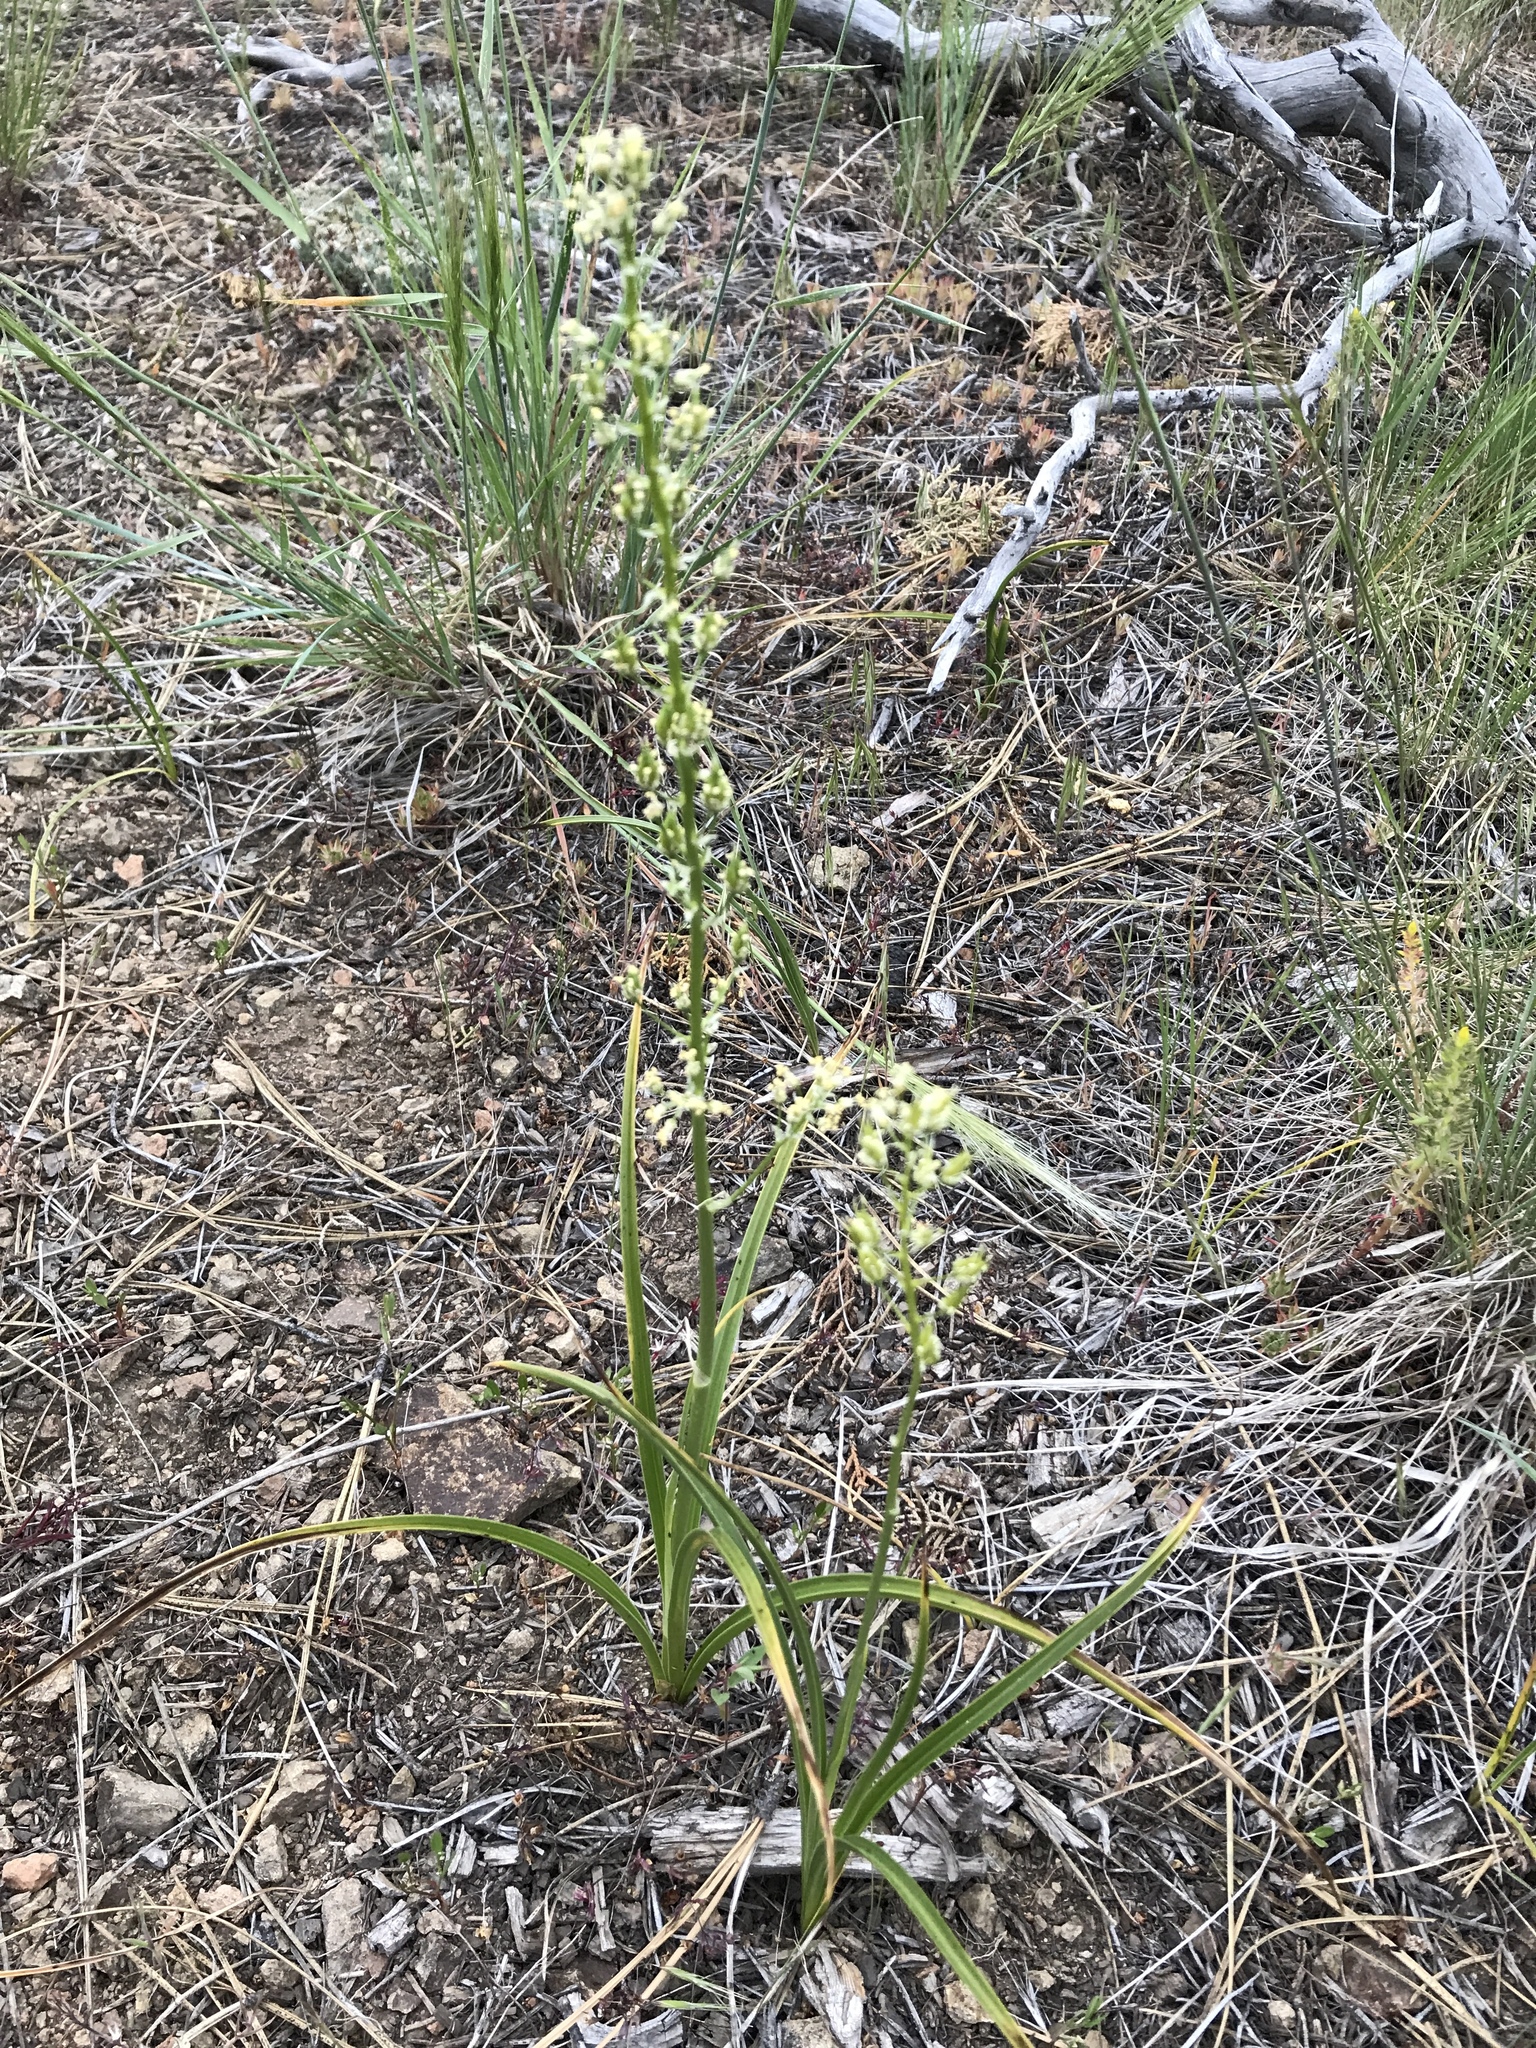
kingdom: Plantae
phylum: Tracheophyta
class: Liliopsida
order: Liliales
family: Melanthiaceae
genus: Toxicoscordion
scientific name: Toxicoscordion paniculatum
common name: Foothill death camas
